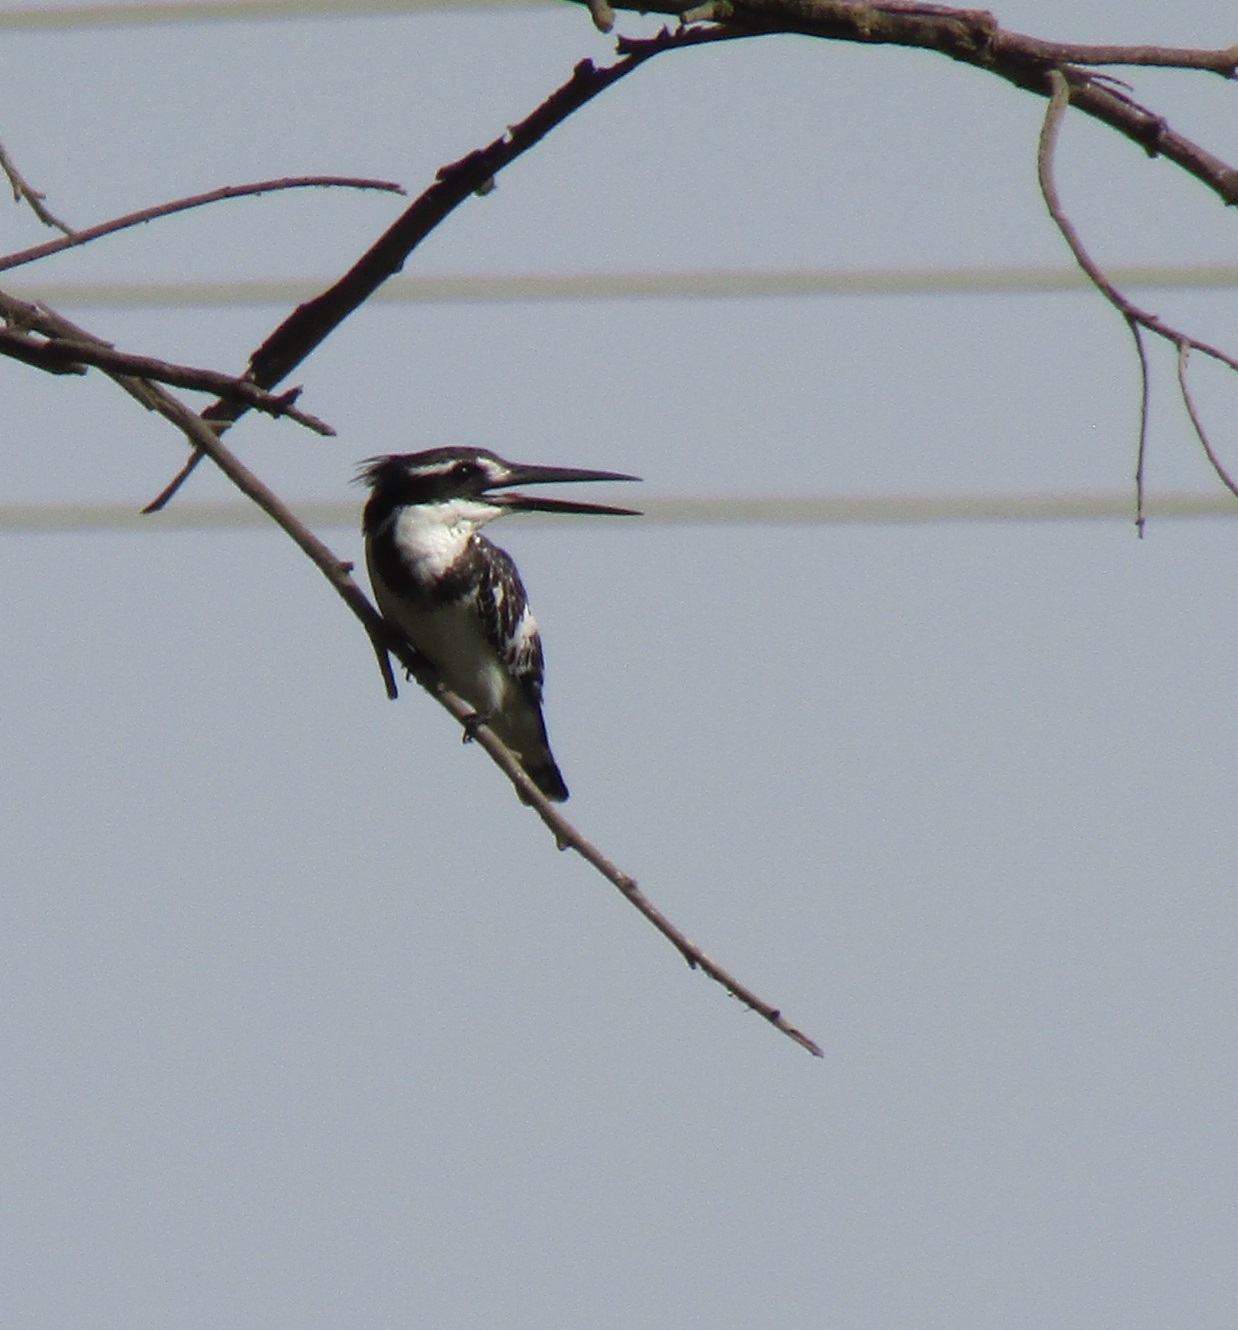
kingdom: Animalia
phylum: Chordata
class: Aves
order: Coraciiformes
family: Alcedinidae
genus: Ceryle
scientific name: Ceryle rudis
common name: Pied kingfisher
